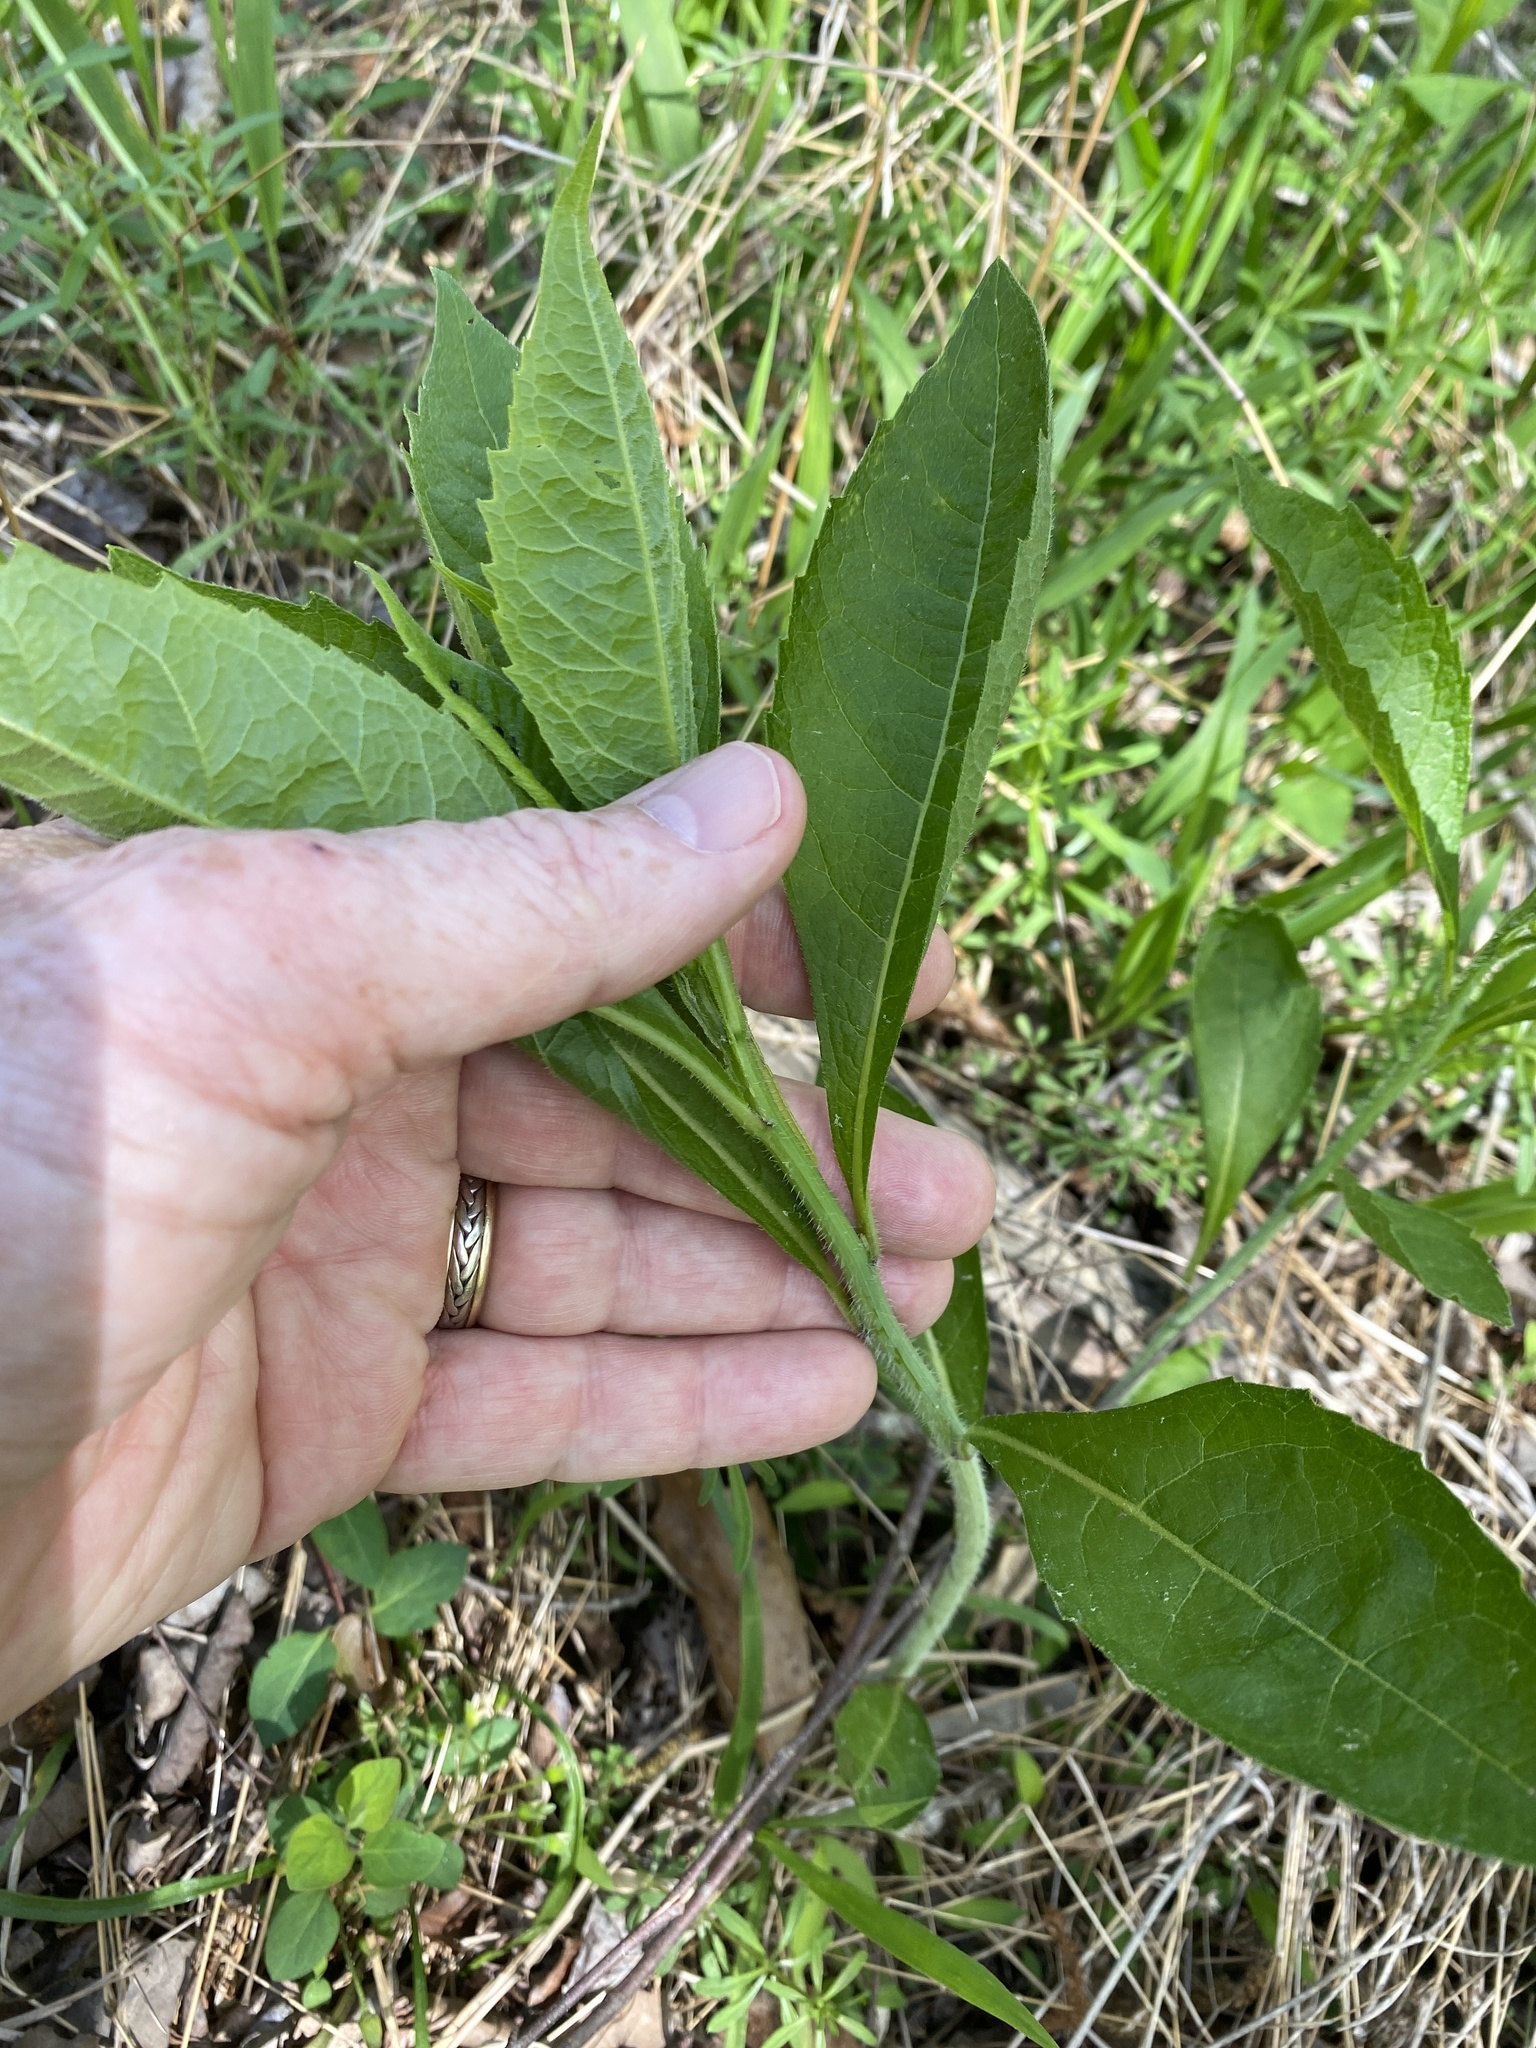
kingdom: Plantae
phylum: Tracheophyta
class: Magnoliopsida
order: Asterales
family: Asteraceae
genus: Verbesina
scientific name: Verbesina alternifolia
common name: Wingstem
